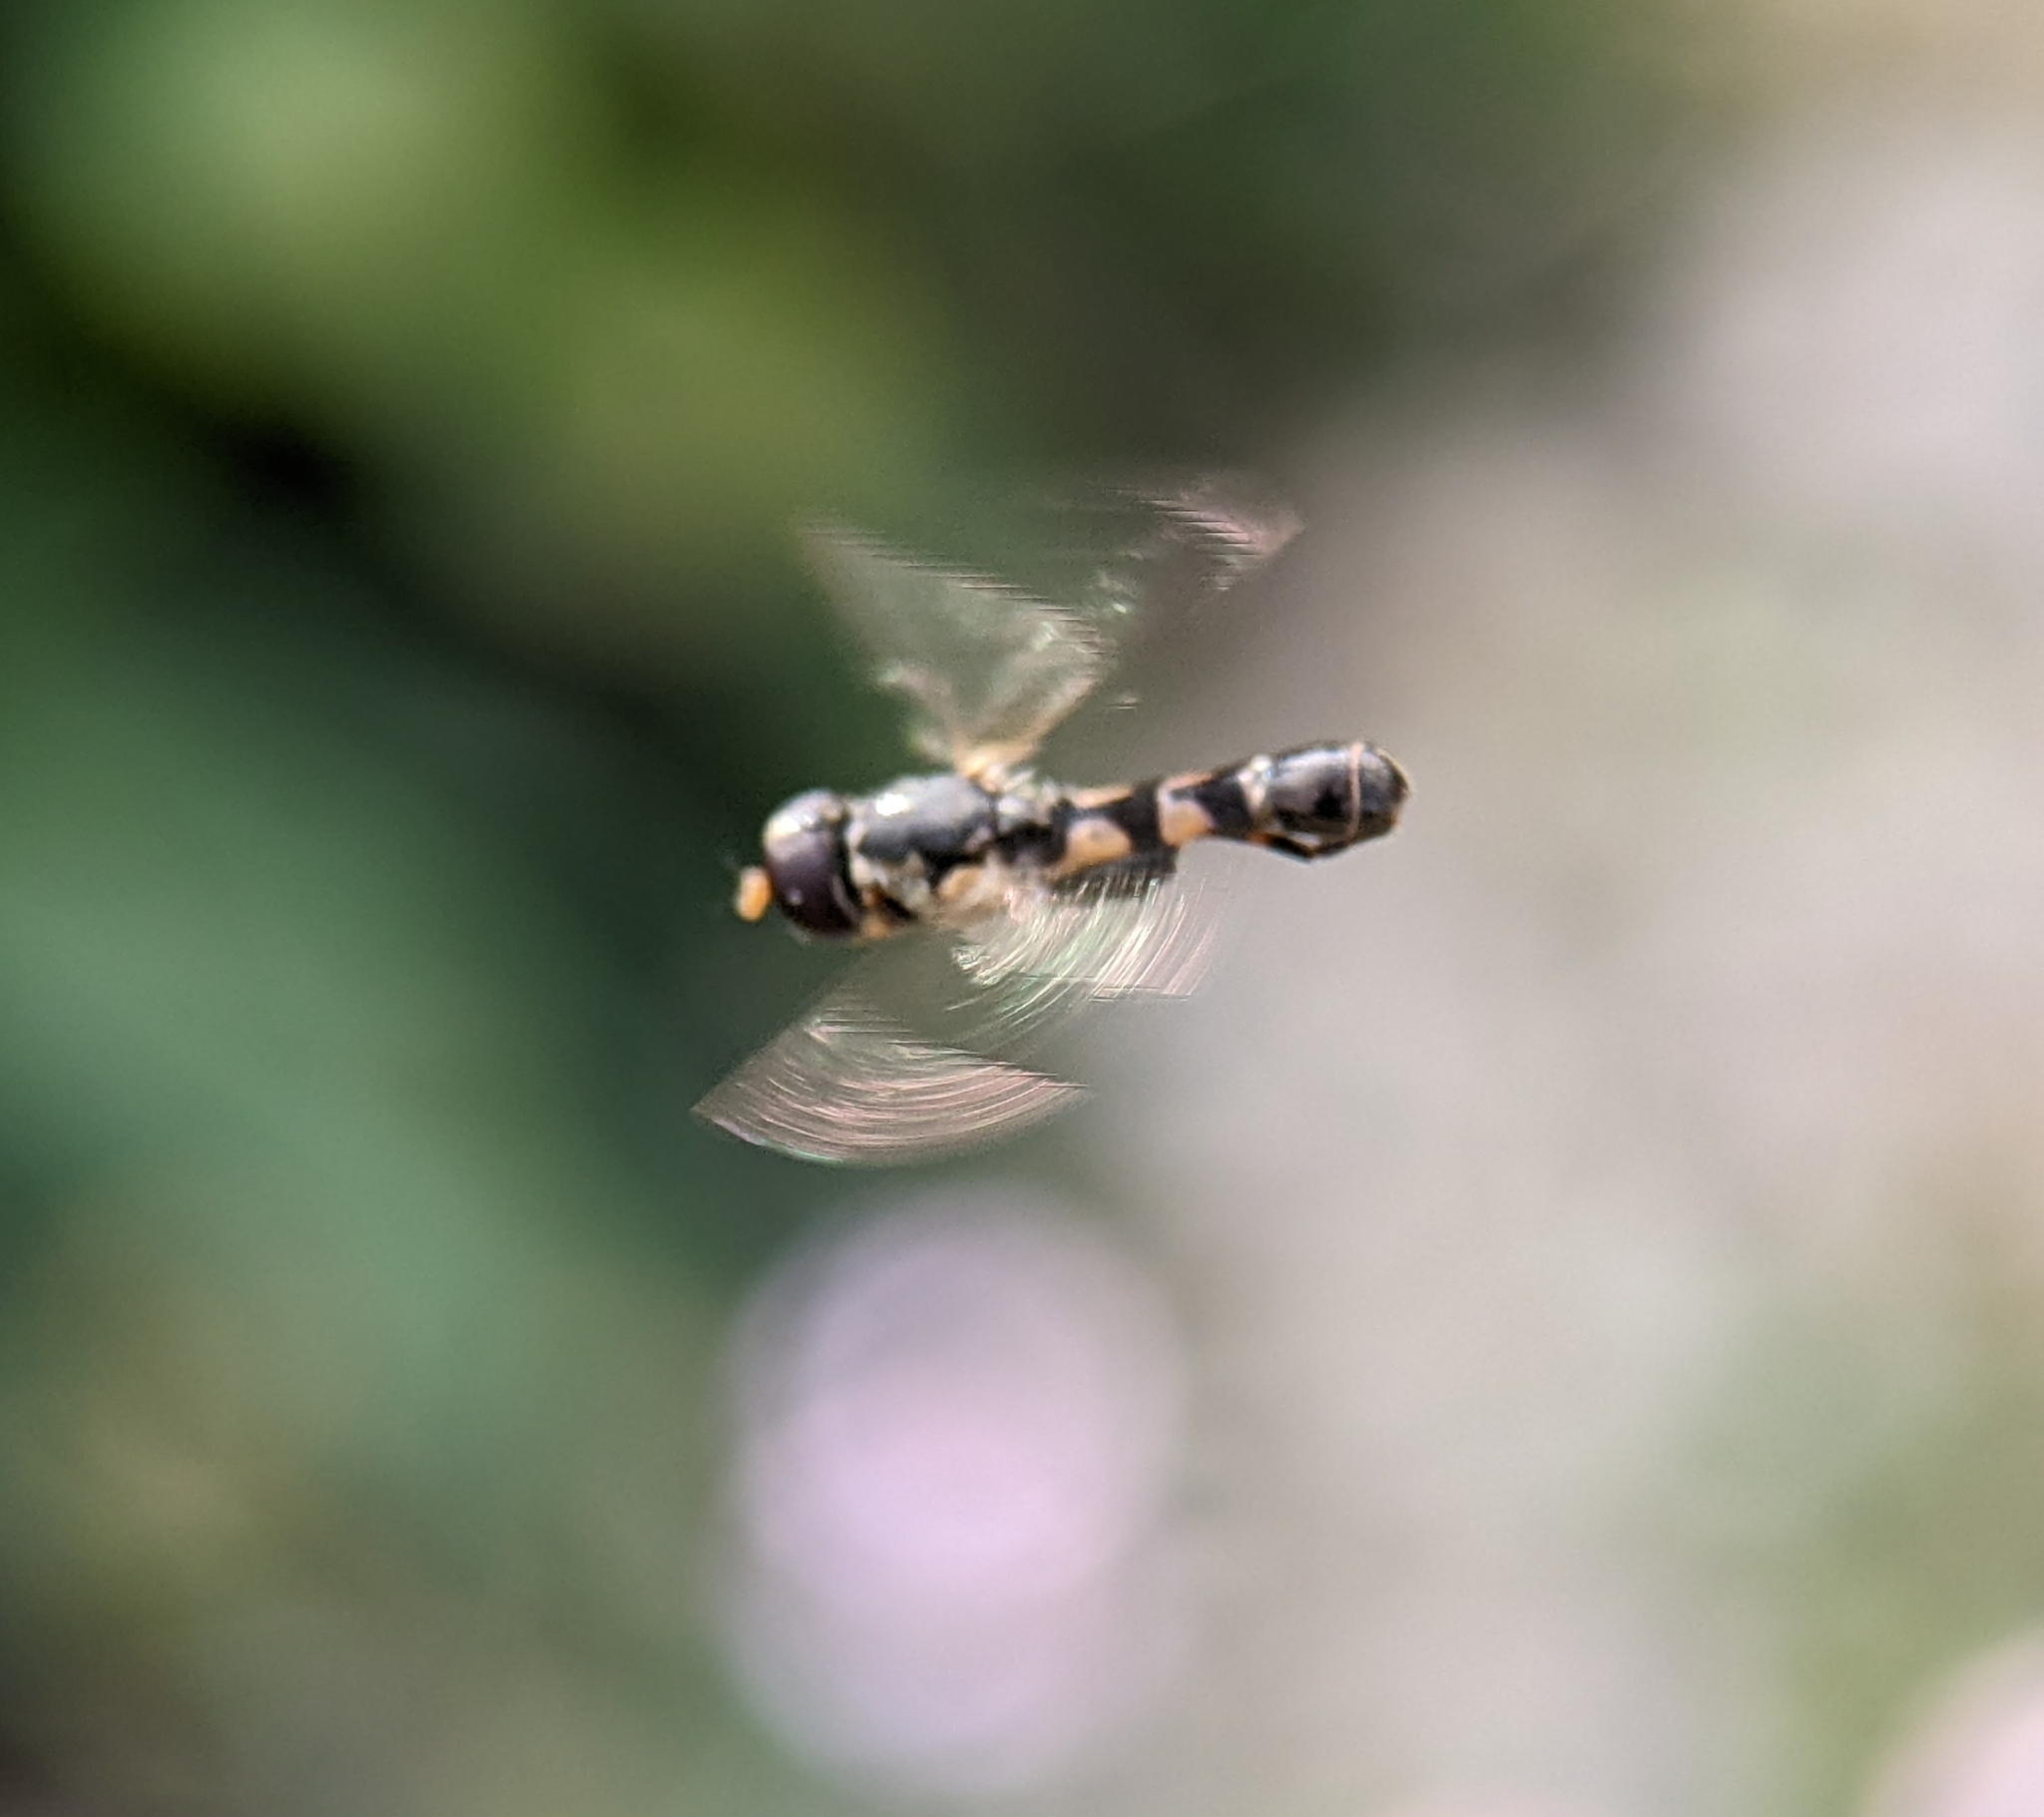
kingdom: Animalia
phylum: Arthropoda
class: Insecta
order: Diptera
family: Syrphidae
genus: Syritta
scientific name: Syritta pipiens
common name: Hover fly
